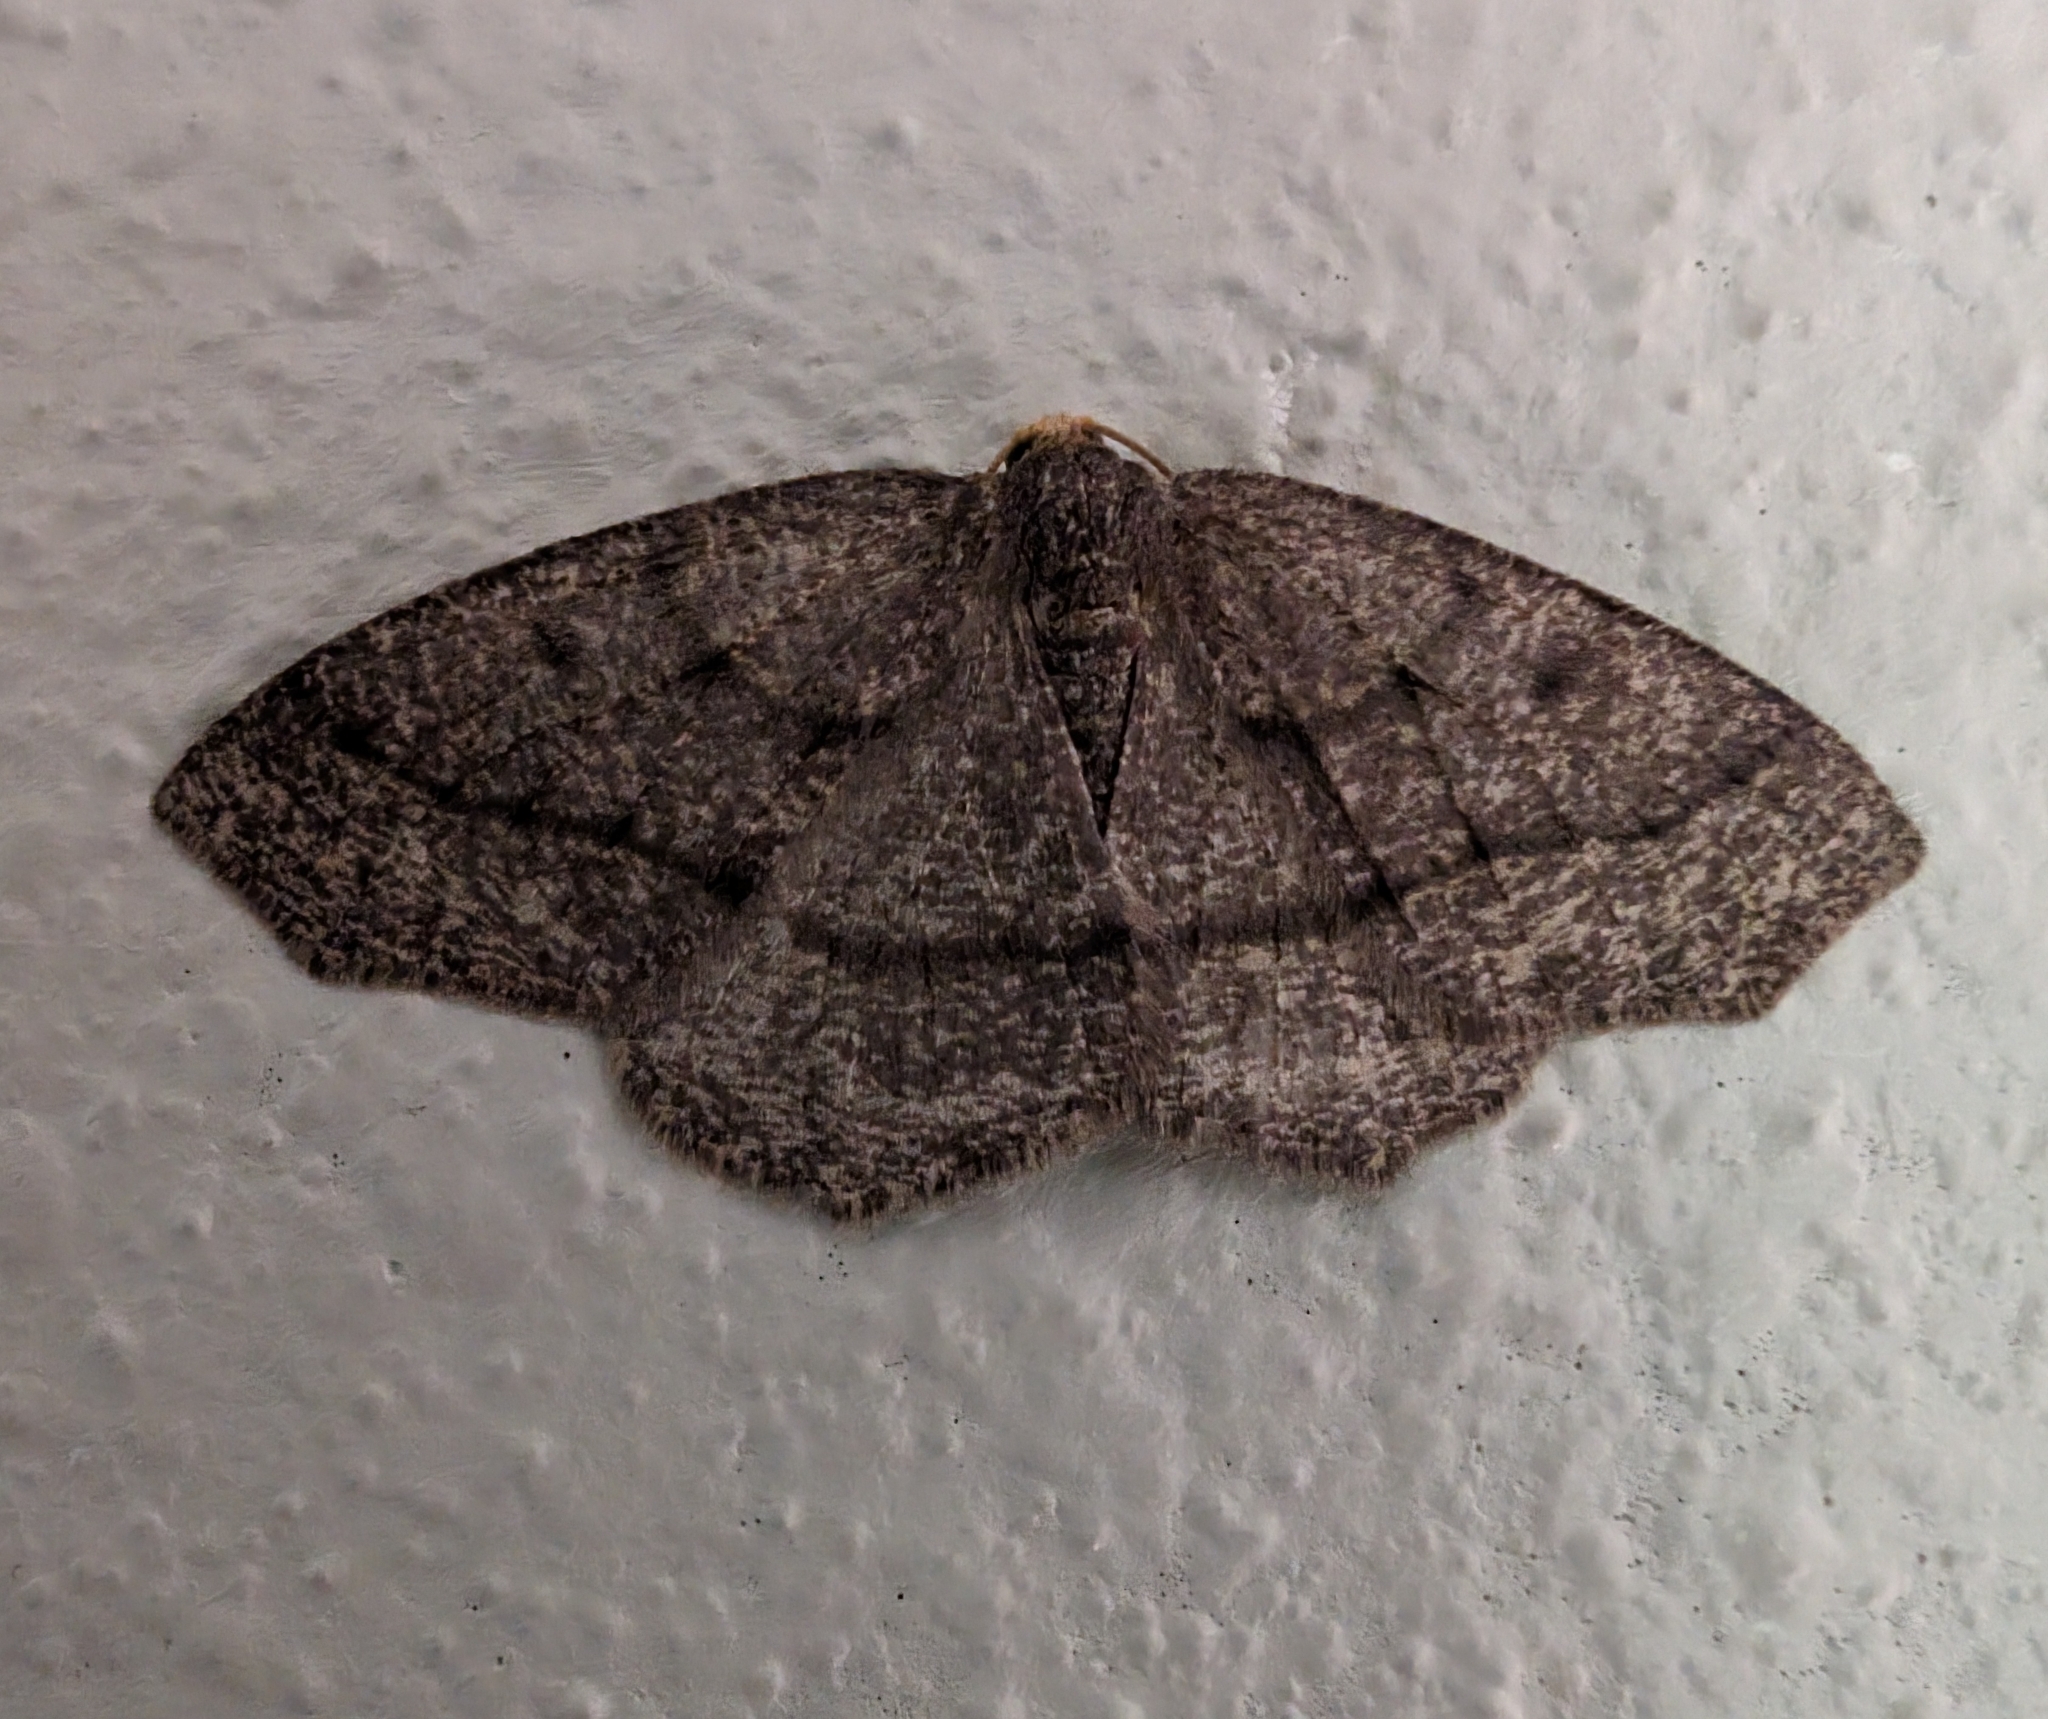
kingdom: Animalia
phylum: Arthropoda
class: Insecta
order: Lepidoptera
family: Geometridae
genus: Lambdina
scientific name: Lambdina fervidaria
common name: Curve-lined looper moth
